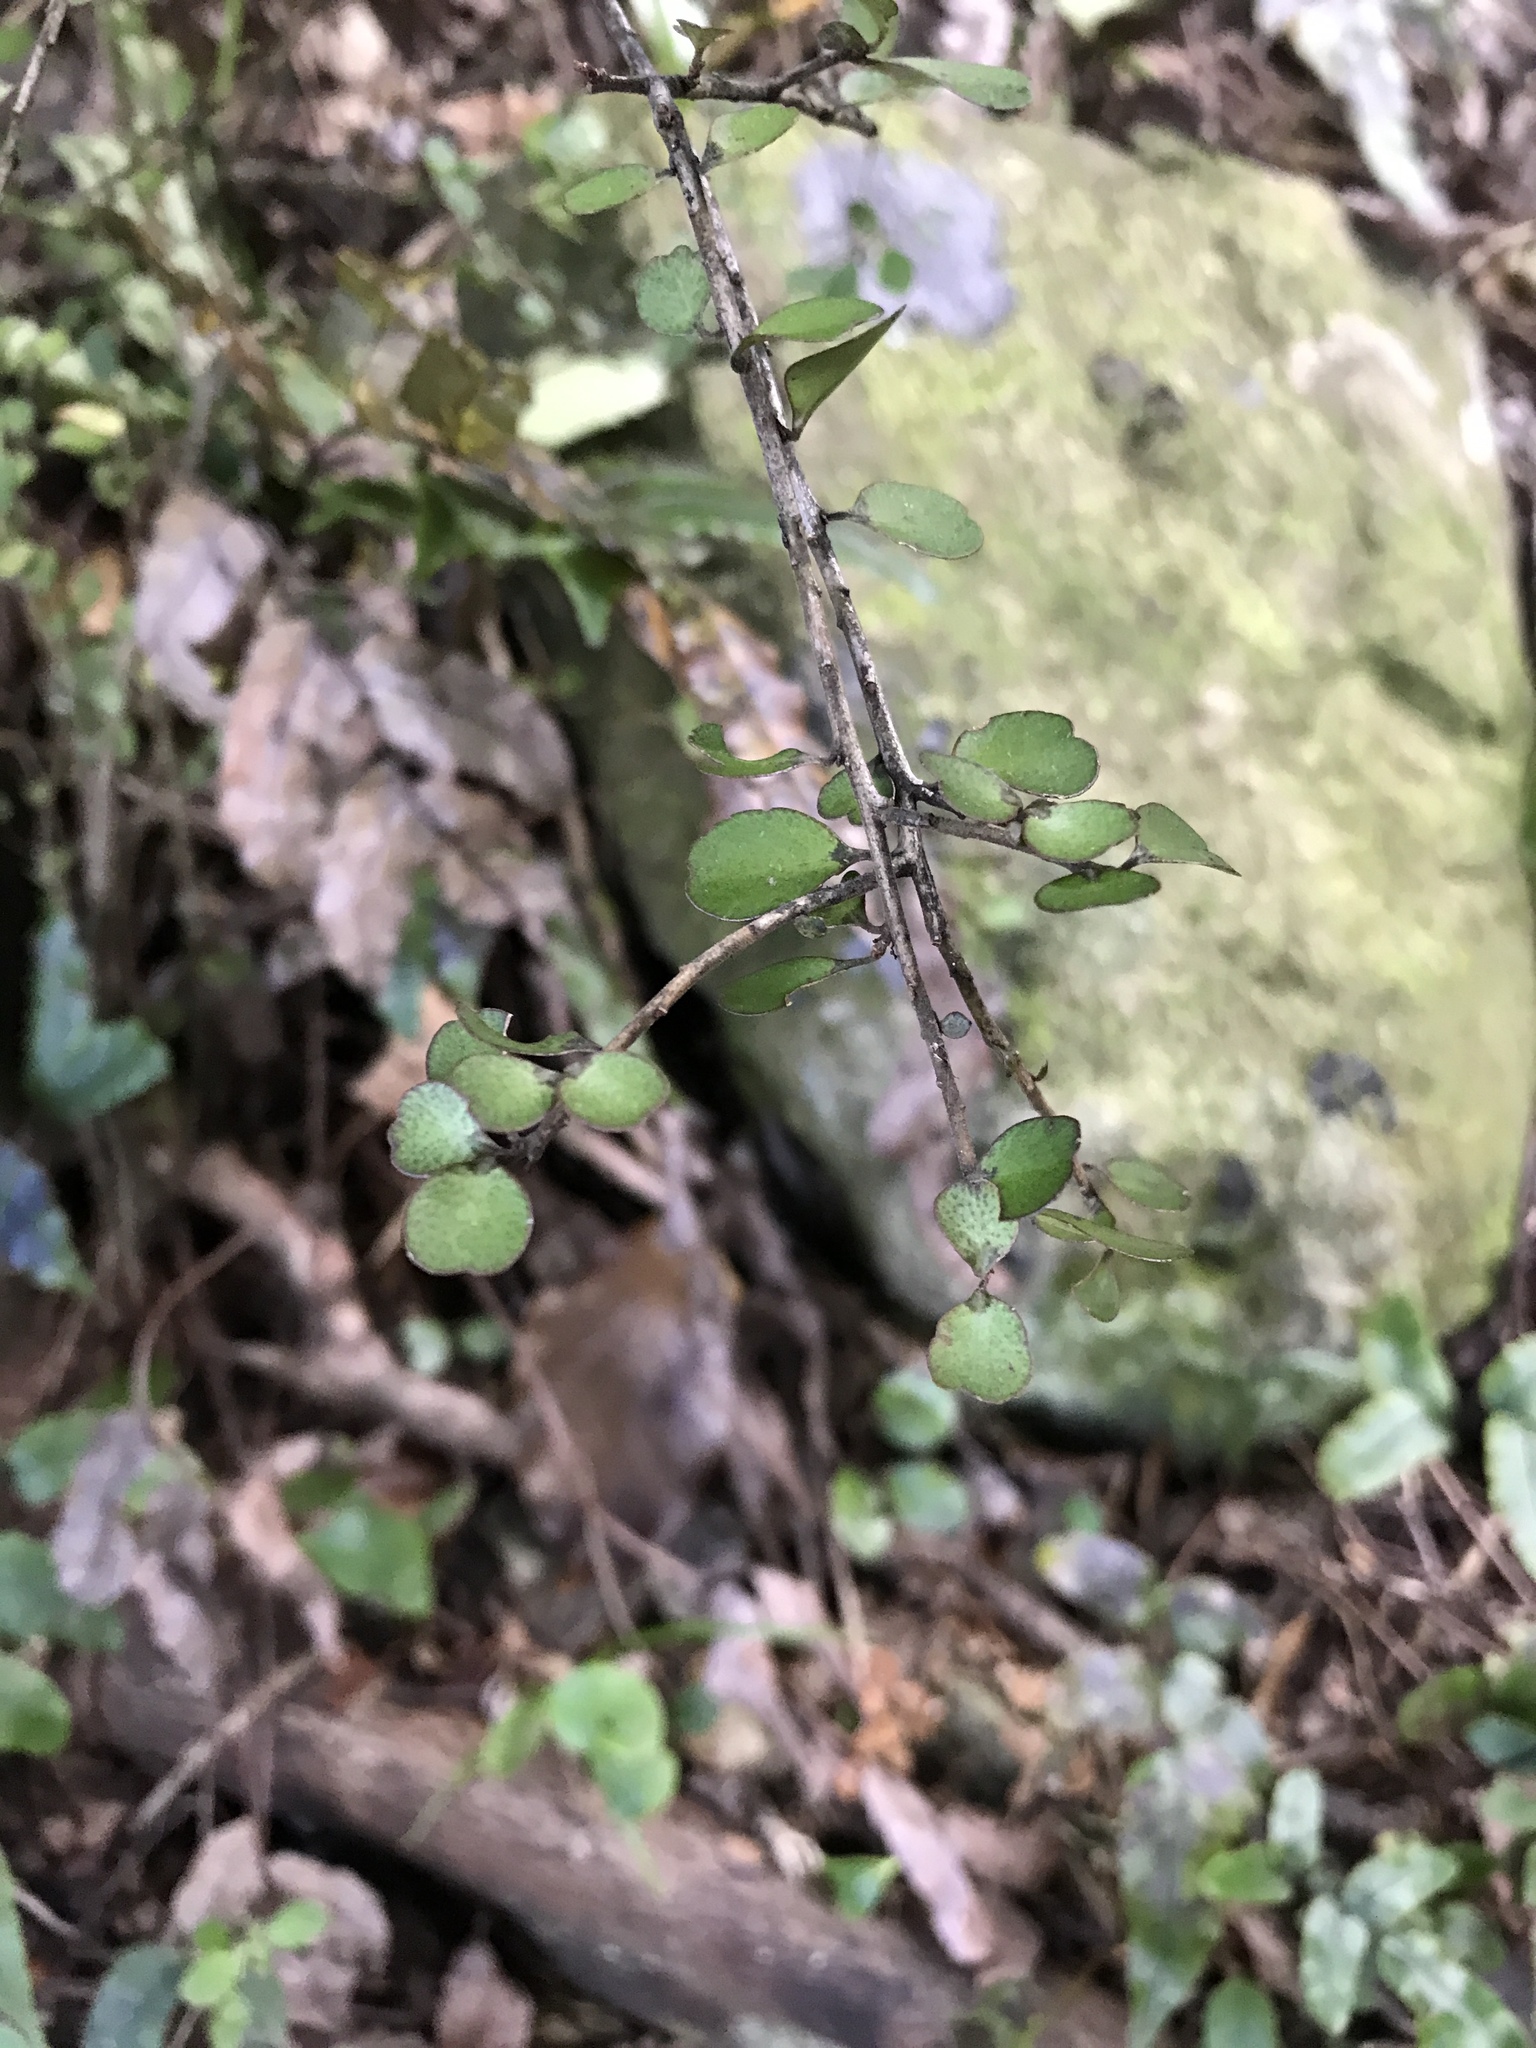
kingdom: Plantae
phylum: Tracheophyta
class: Magnoliopsida
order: Ericales
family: Primulaceae
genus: Myrsine
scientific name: Myrsine divaricata
